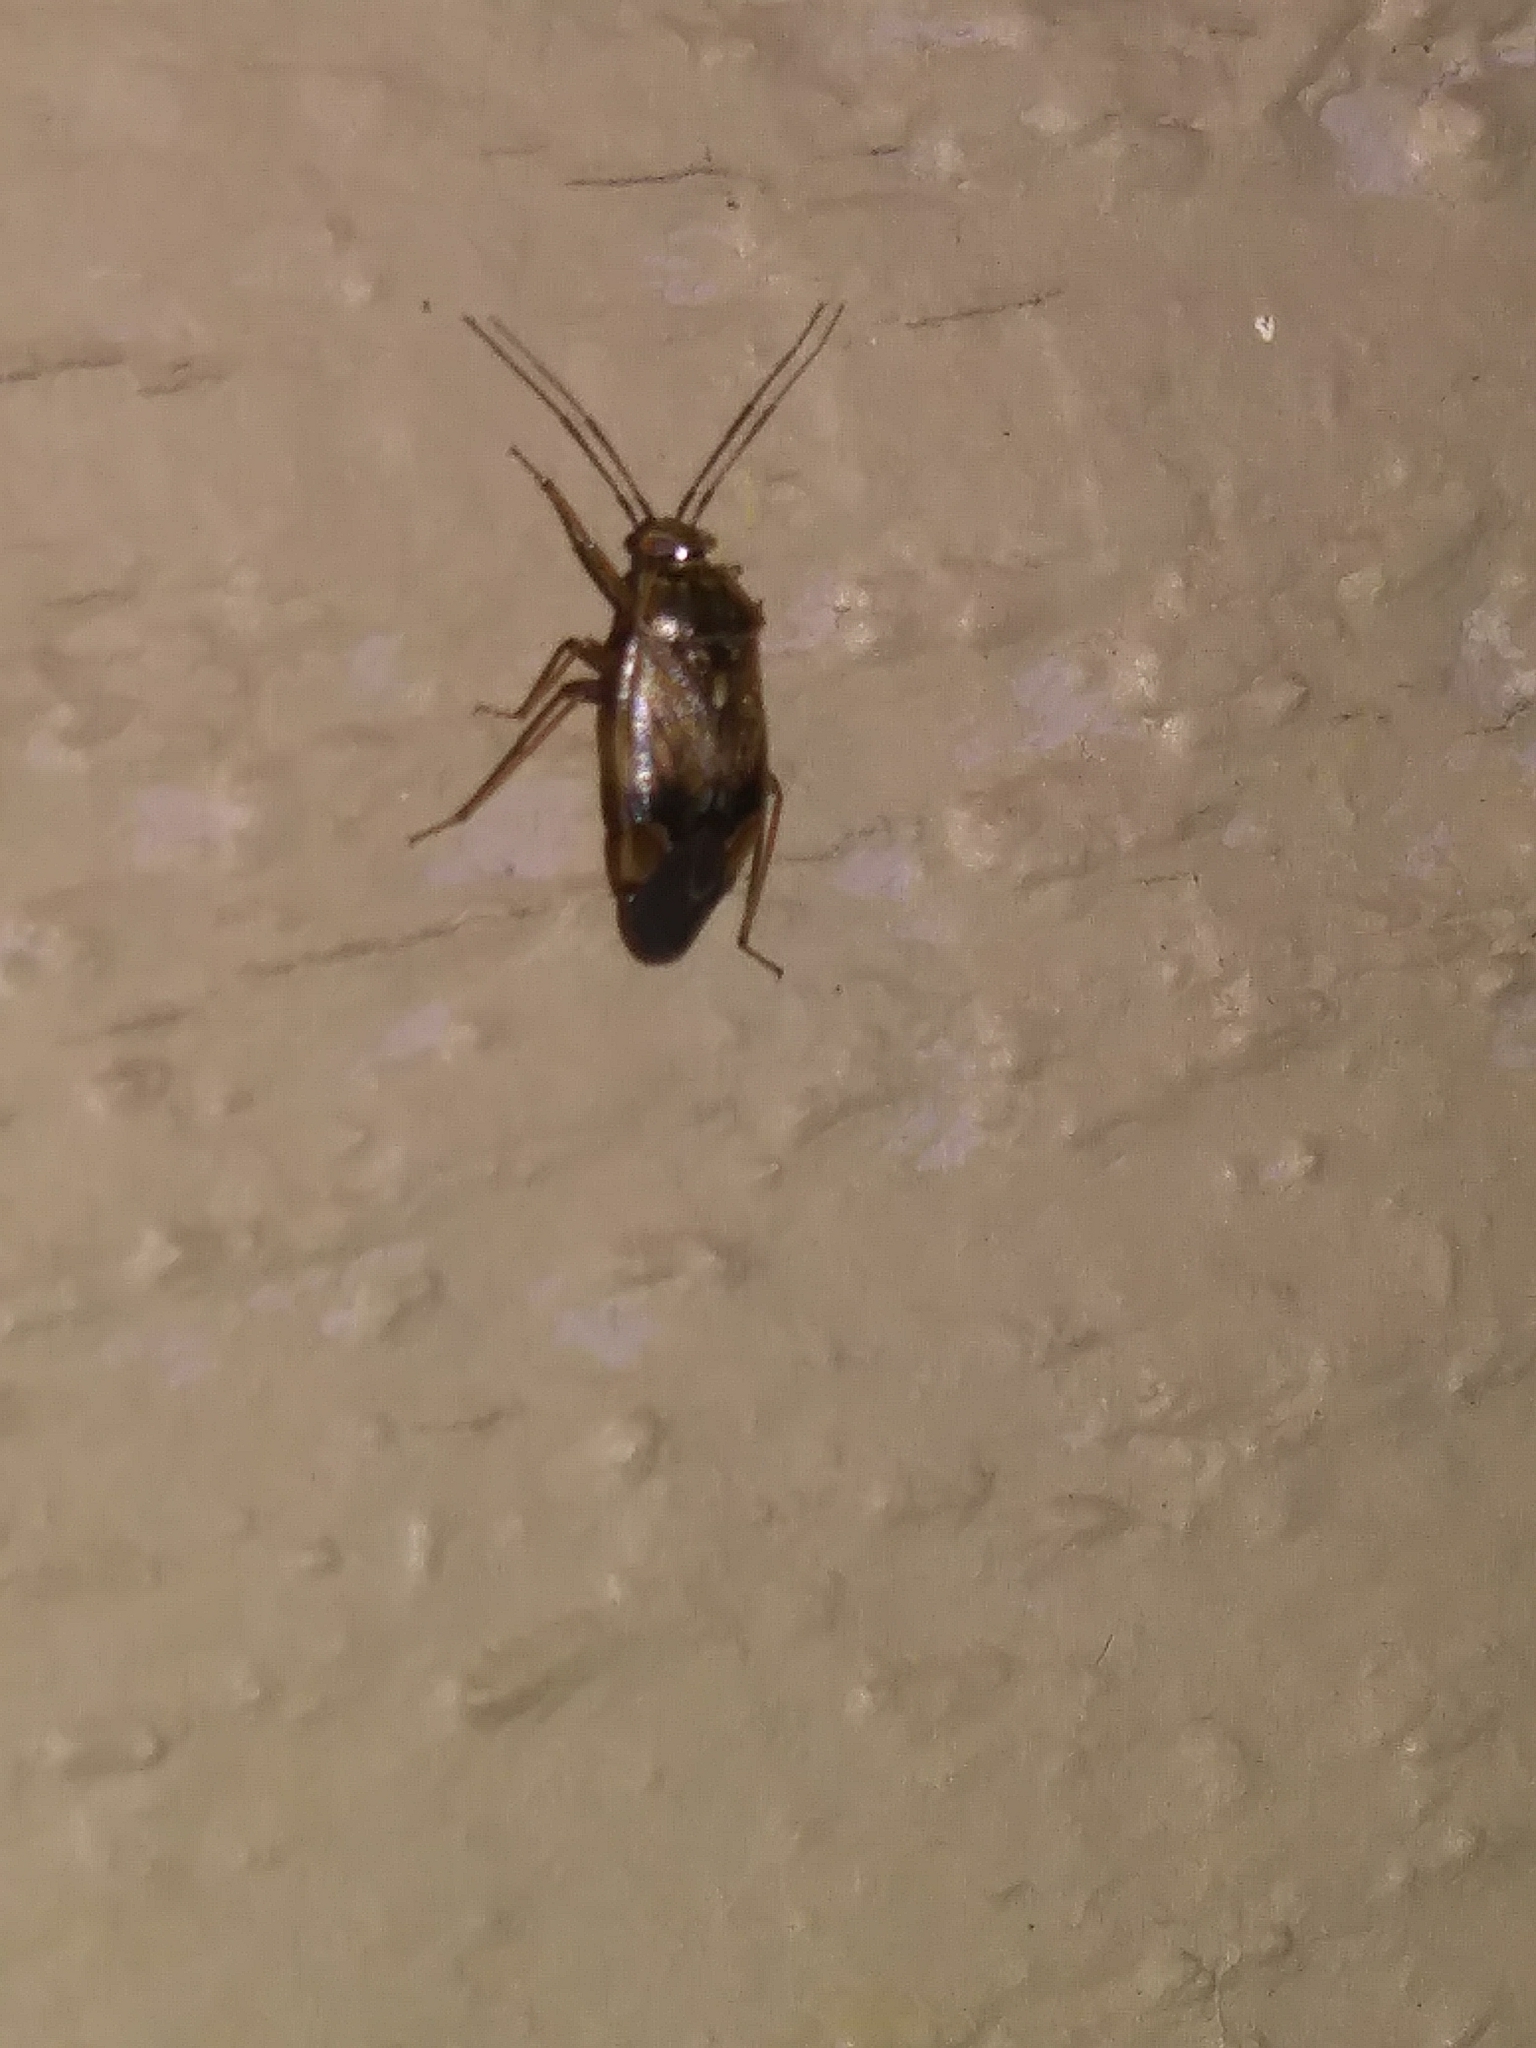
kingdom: Animalia
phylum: Arthropoda
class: Insecta
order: Hemiptera
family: Miridae
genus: Lygus
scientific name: Lygus lineolaris
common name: North american tarnished plant bug
